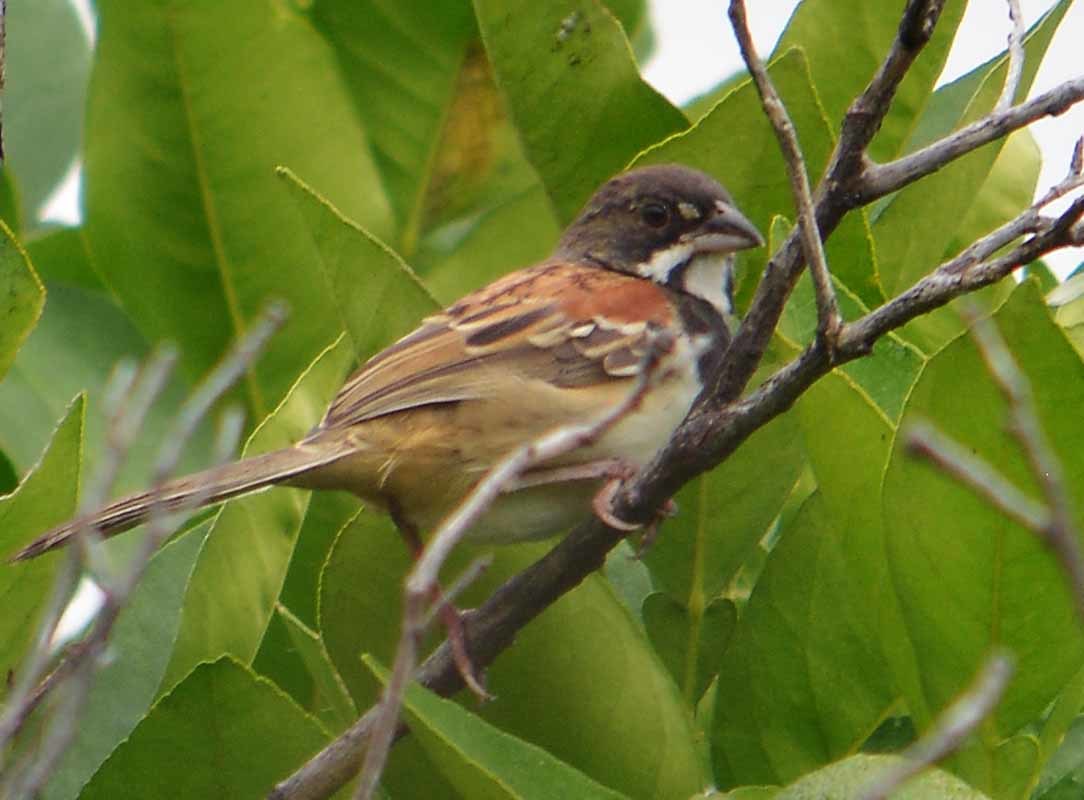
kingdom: Animalia
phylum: Chordata
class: Aves
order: Passeriformes
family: Passerellidae
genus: Peucaea
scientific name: Peucaea humeralis
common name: Black-chested sparrow
